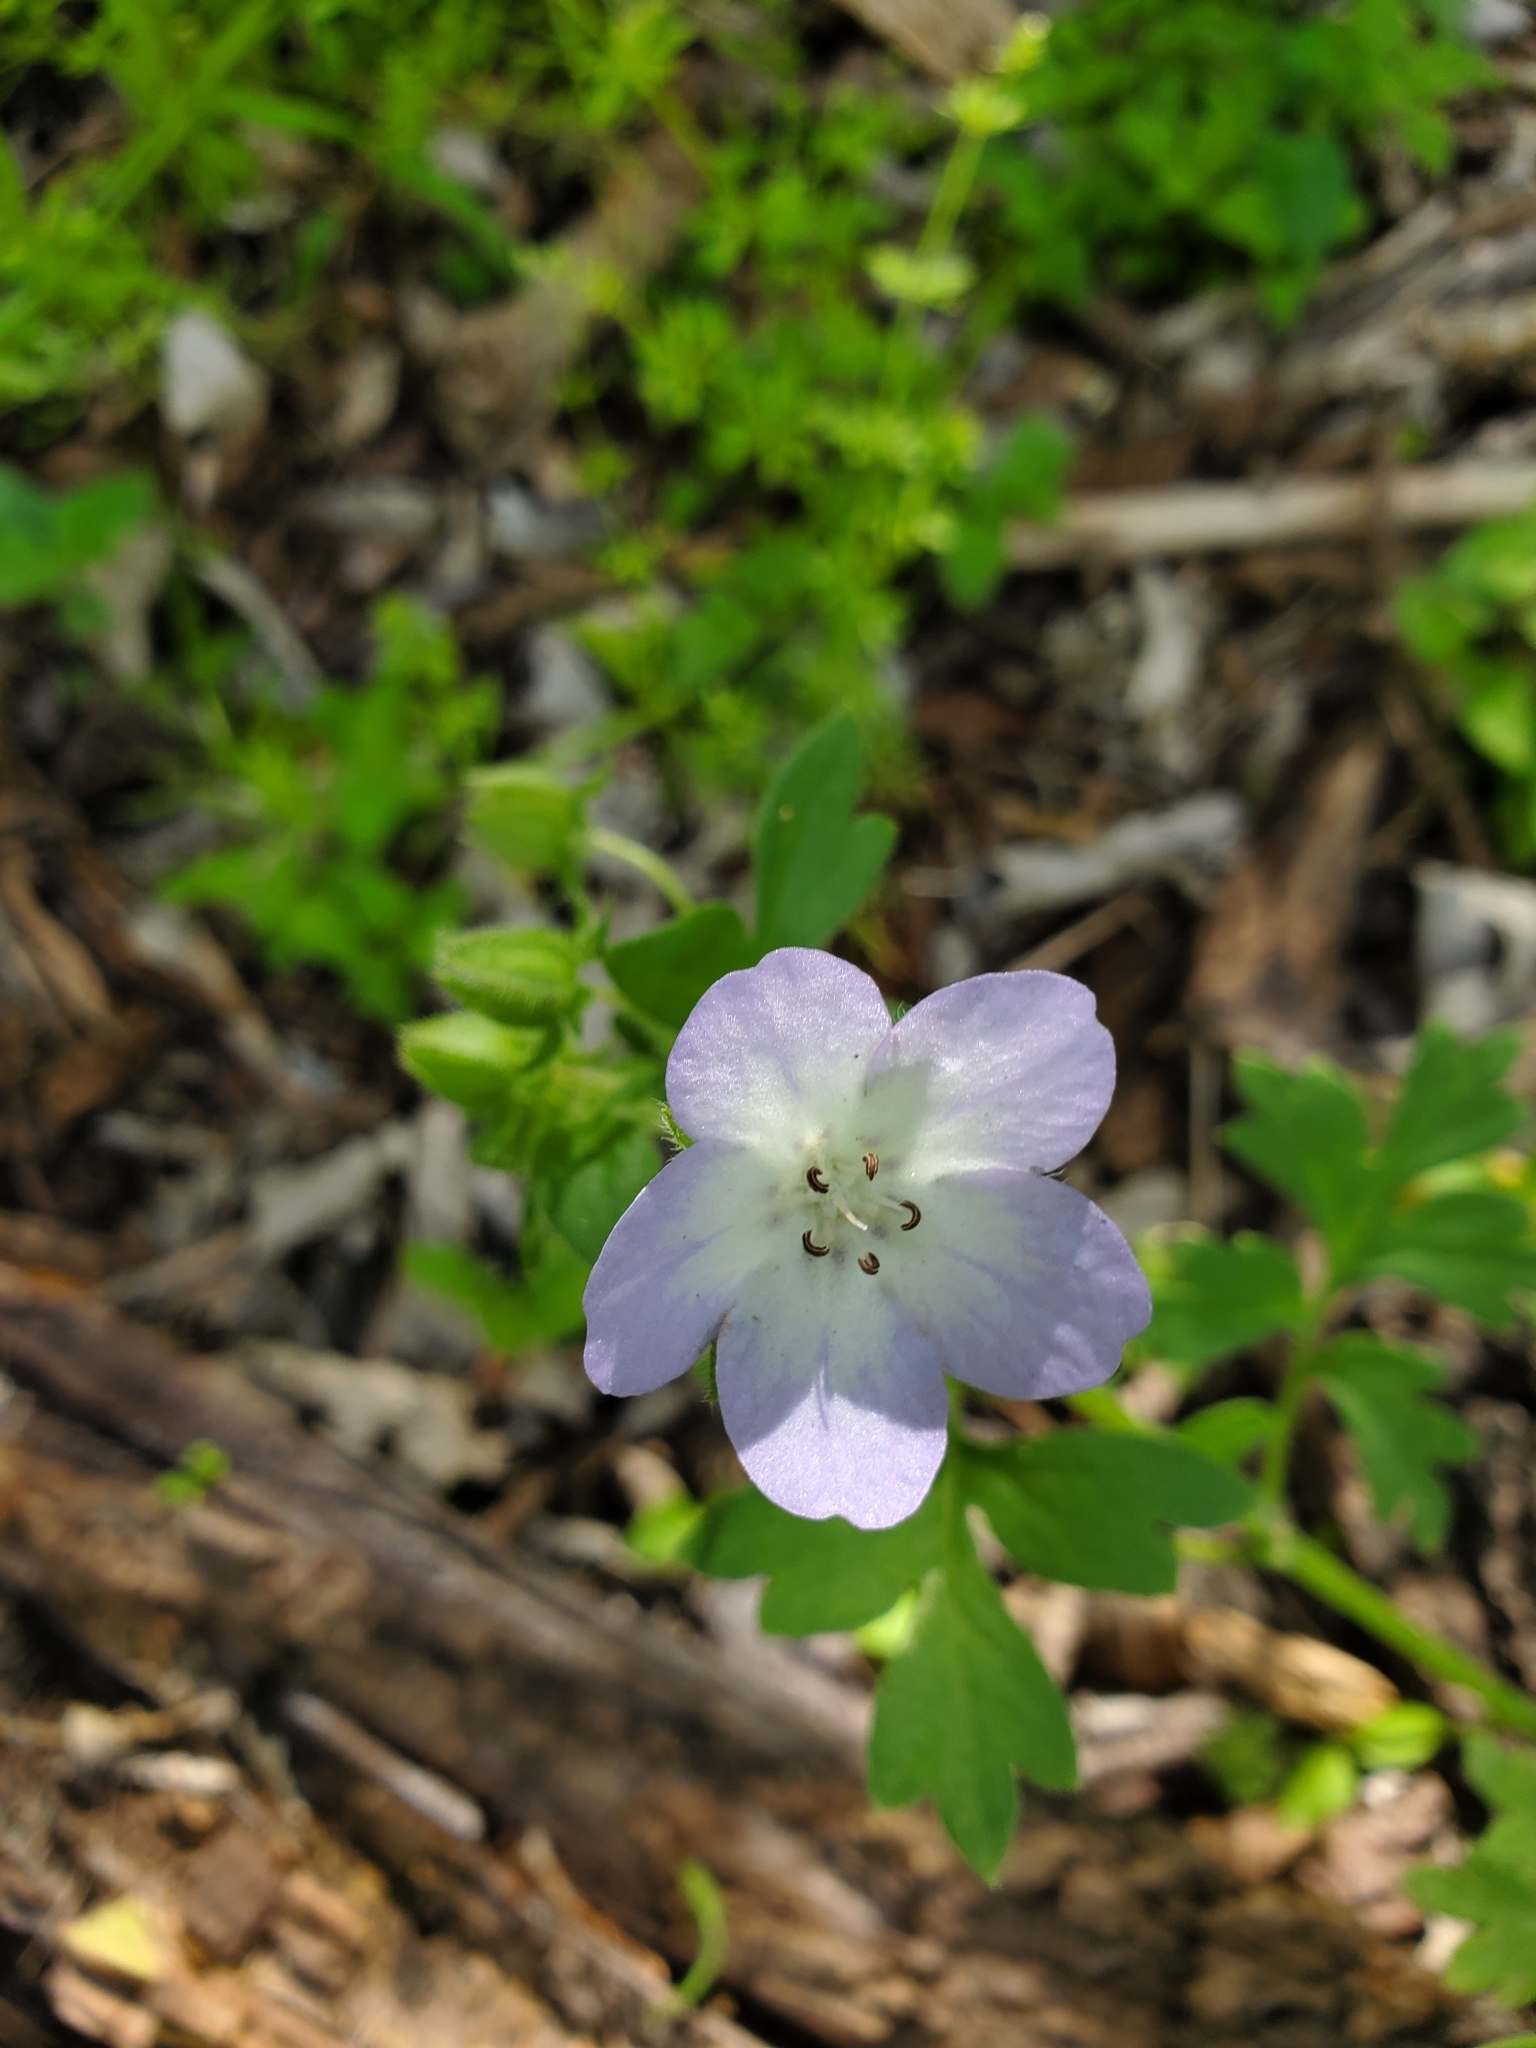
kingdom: Plantae
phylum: Tracheophyta
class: Magnoliopsida
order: Boraginales
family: Hydrophyllaceae
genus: Nemophila
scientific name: Nemophila phacelioides
